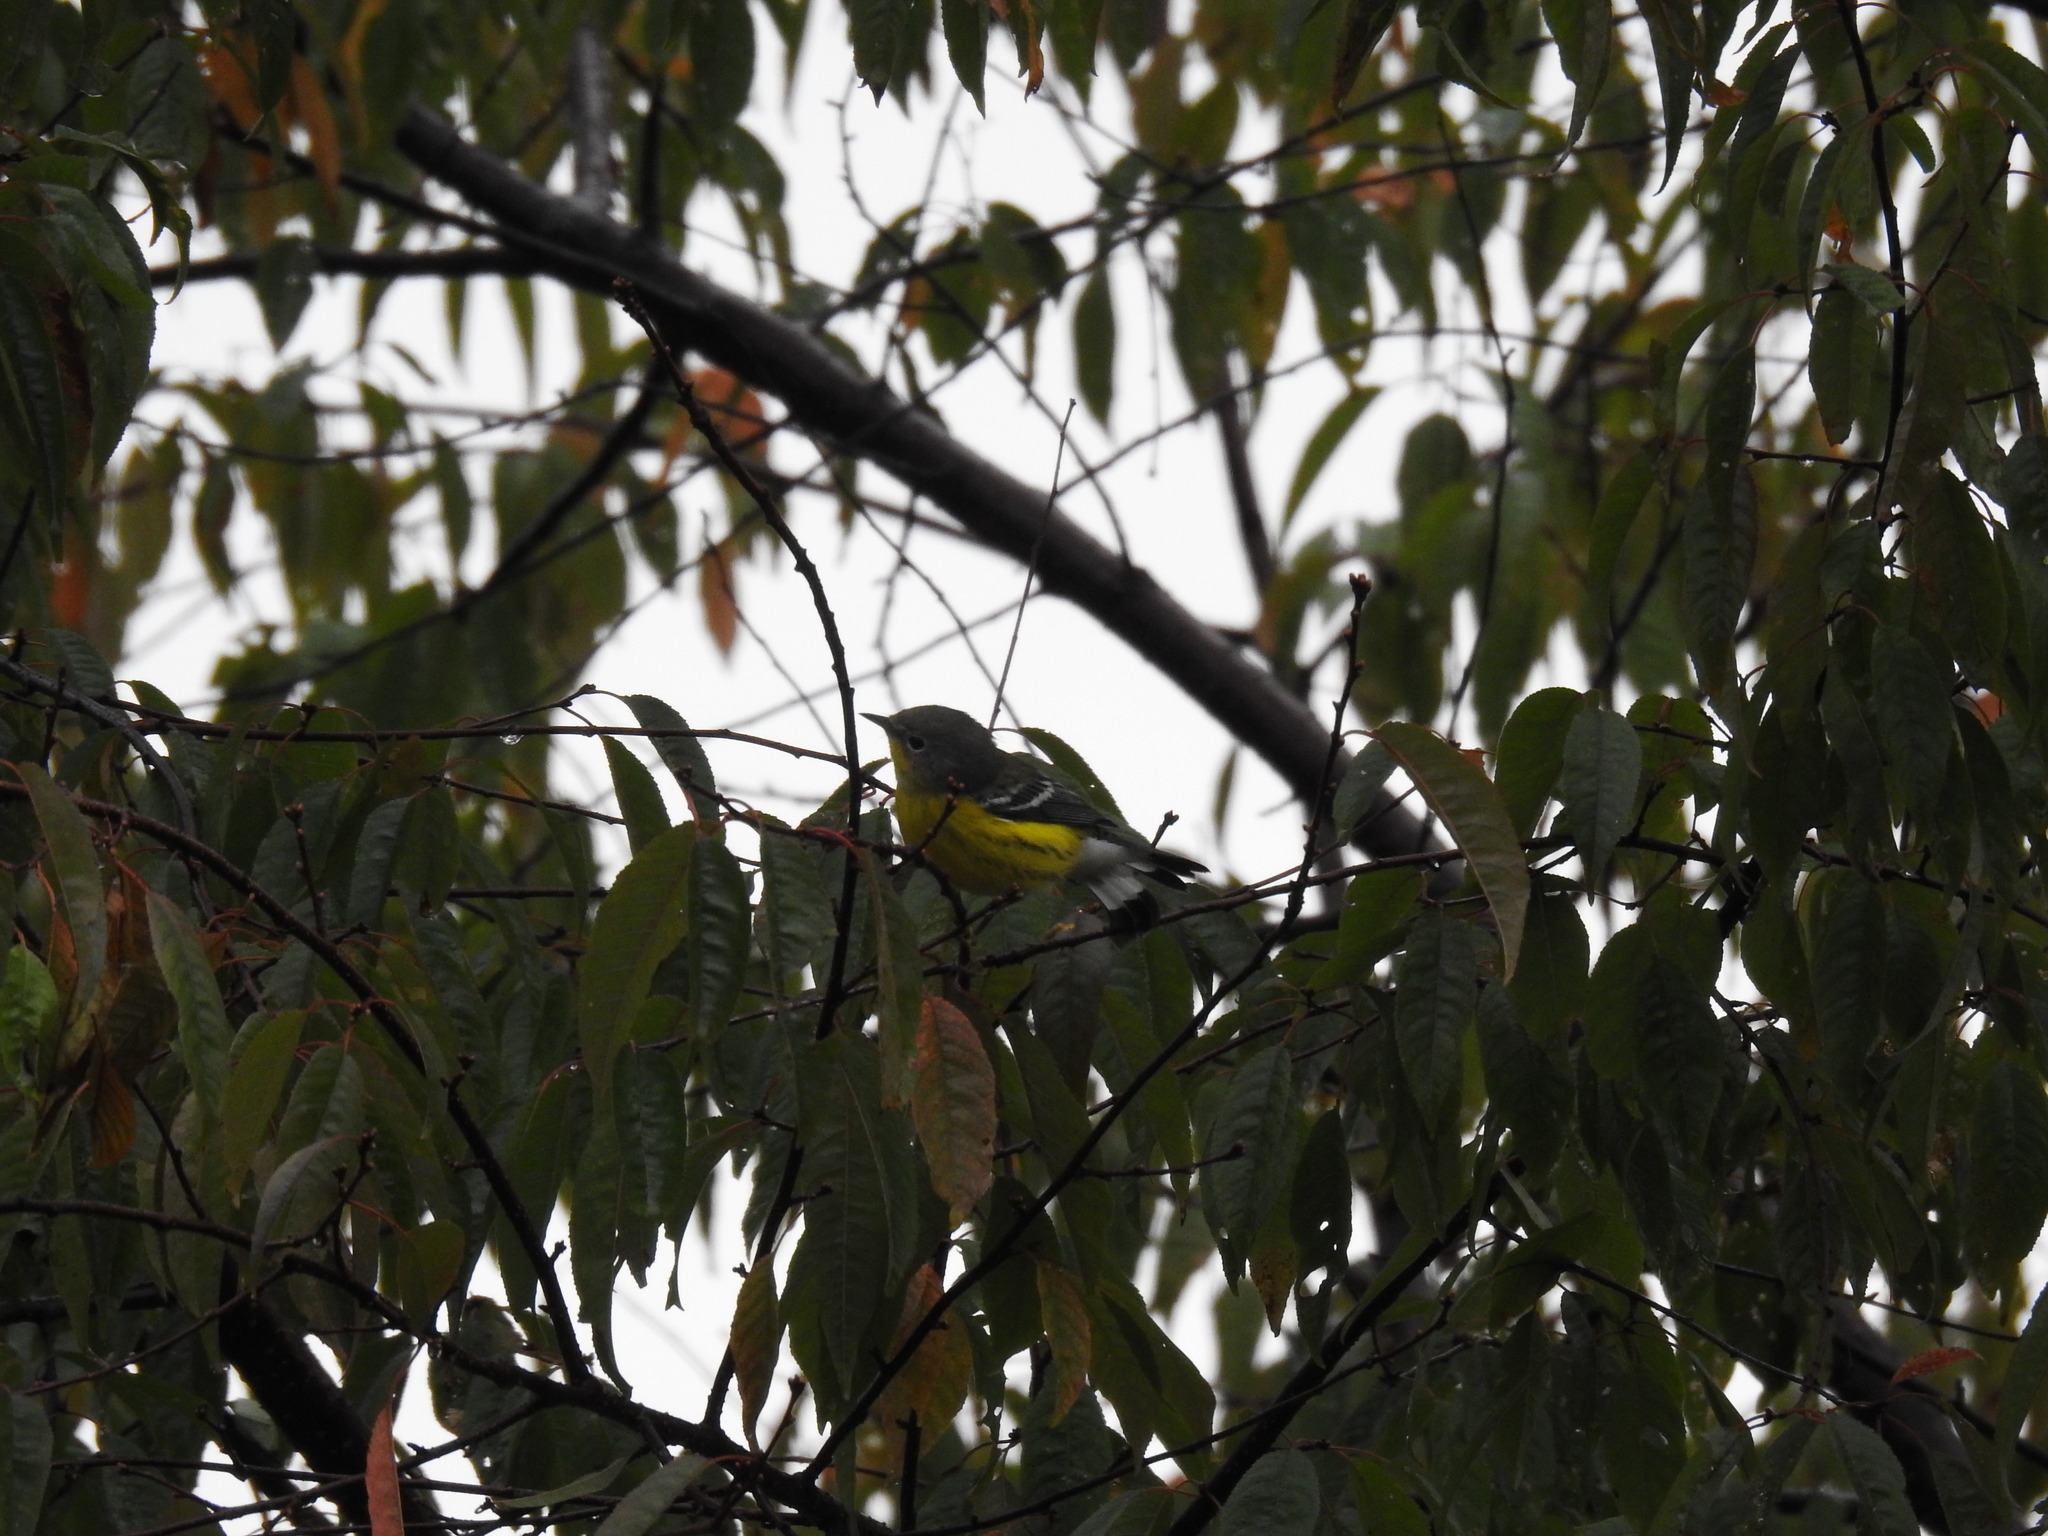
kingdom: Animalia
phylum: Chordata
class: Aves
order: Passeriformes
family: Parulidae
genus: Setophaga
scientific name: Setophaga magnolia
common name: Magnolia warbler
